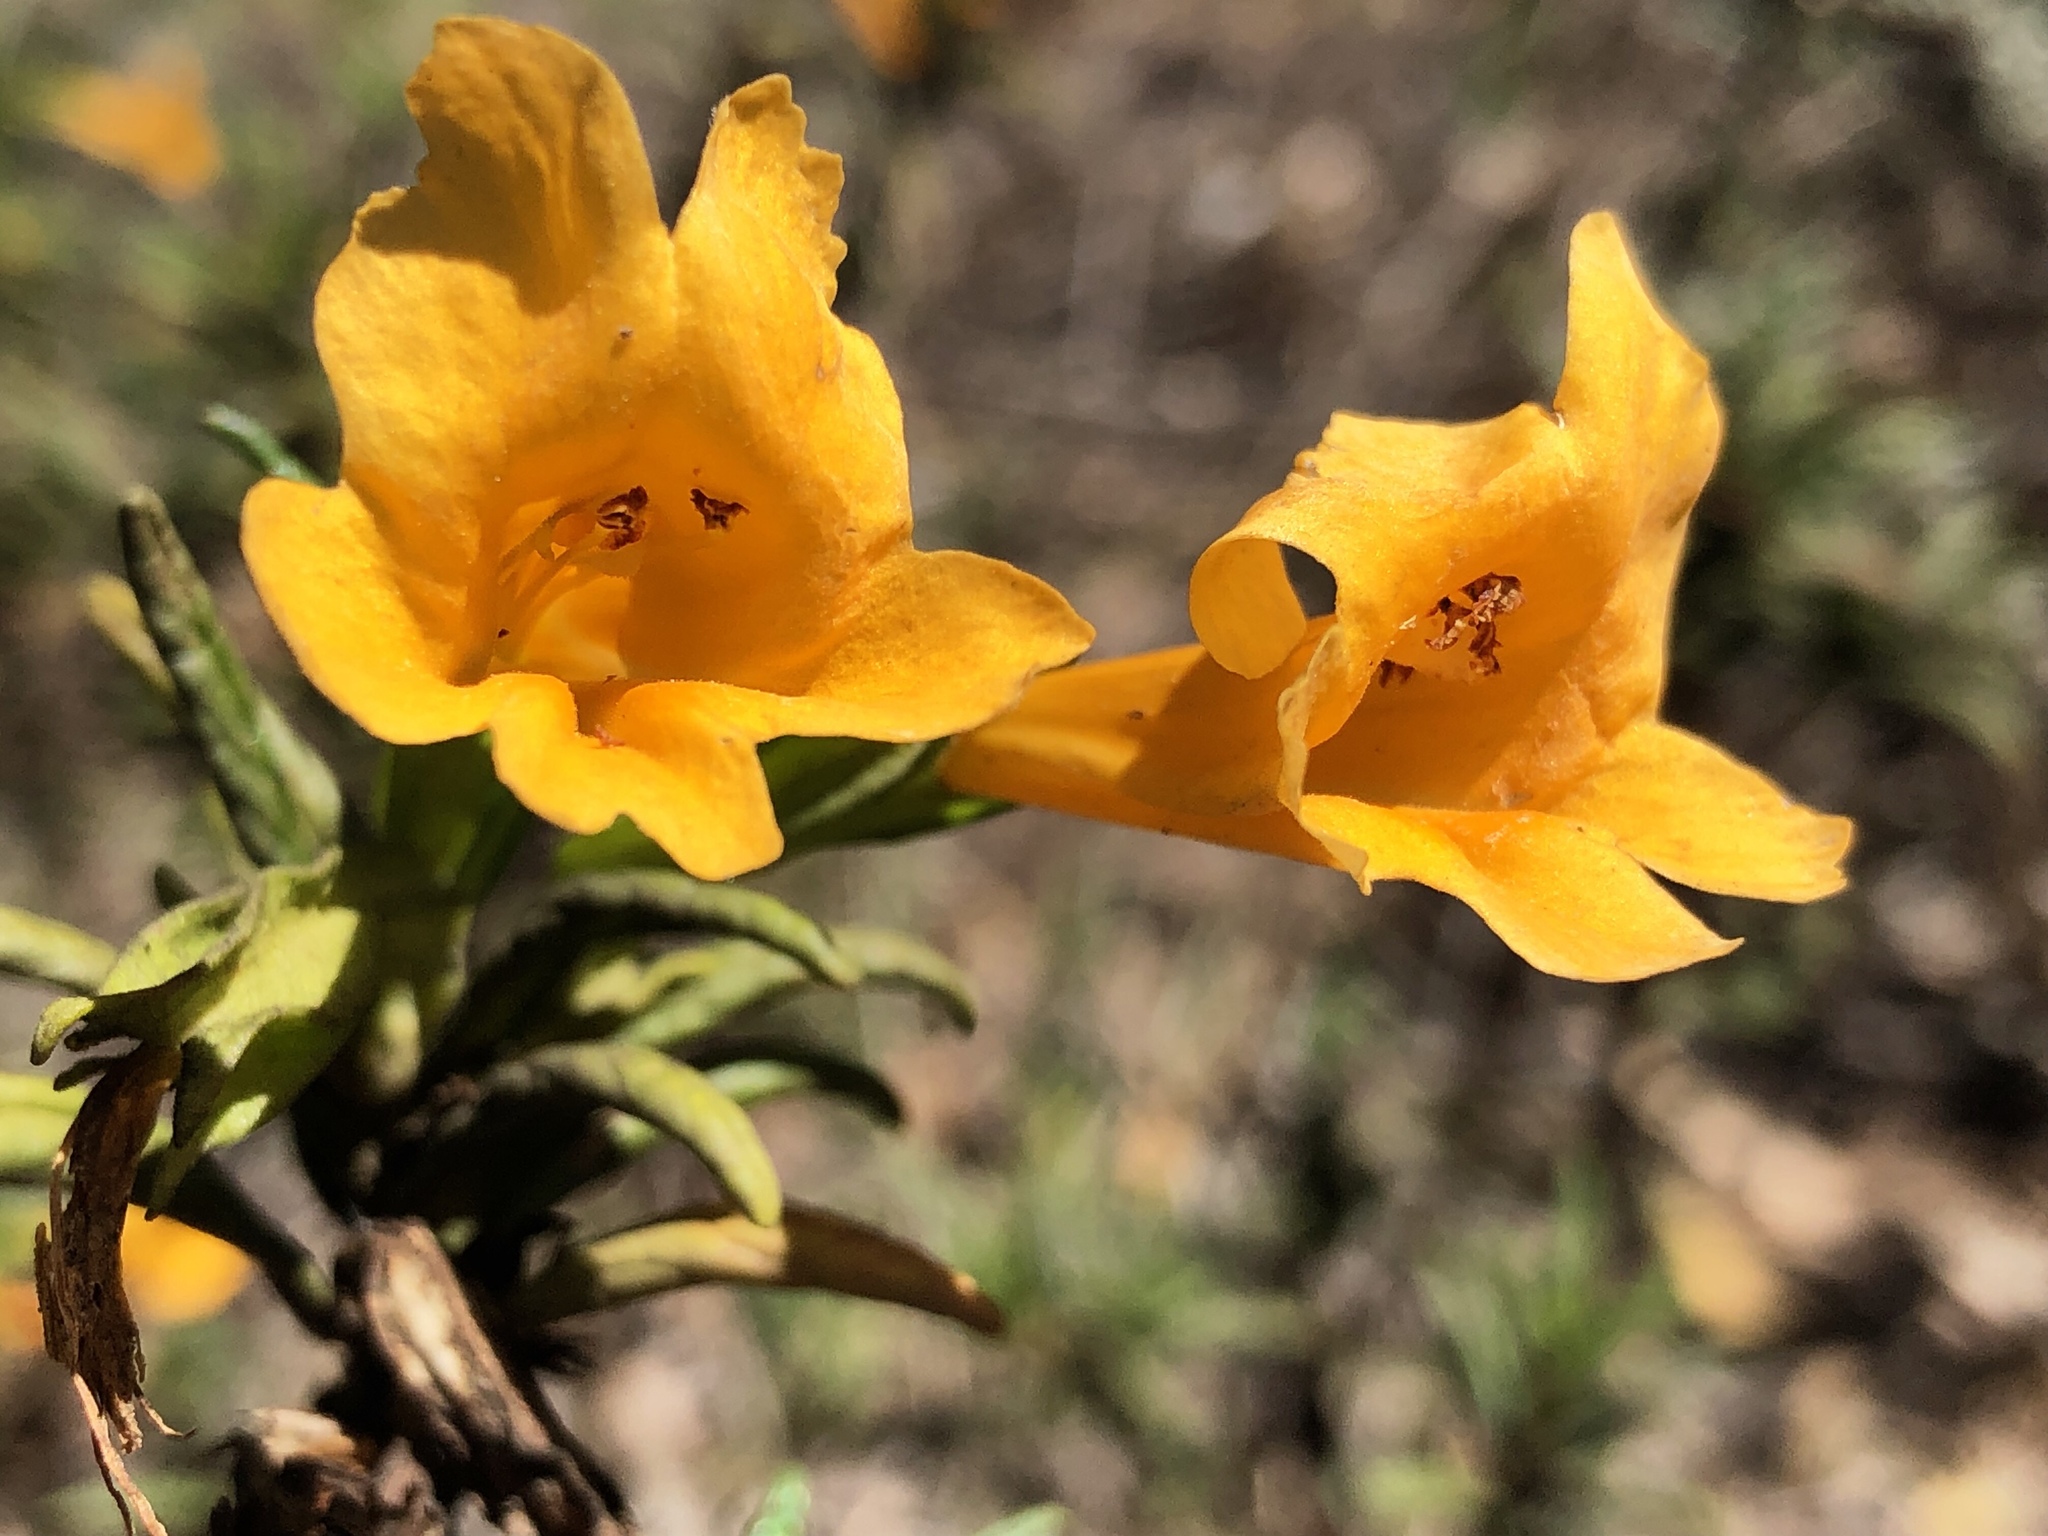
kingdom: Plantae
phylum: Tracheophyta
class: Magnoliopsida
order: Lamiales
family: Phrymaceae
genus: Diplacus
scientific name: Diplacus aurantiacus
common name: Bush monkey-flower
